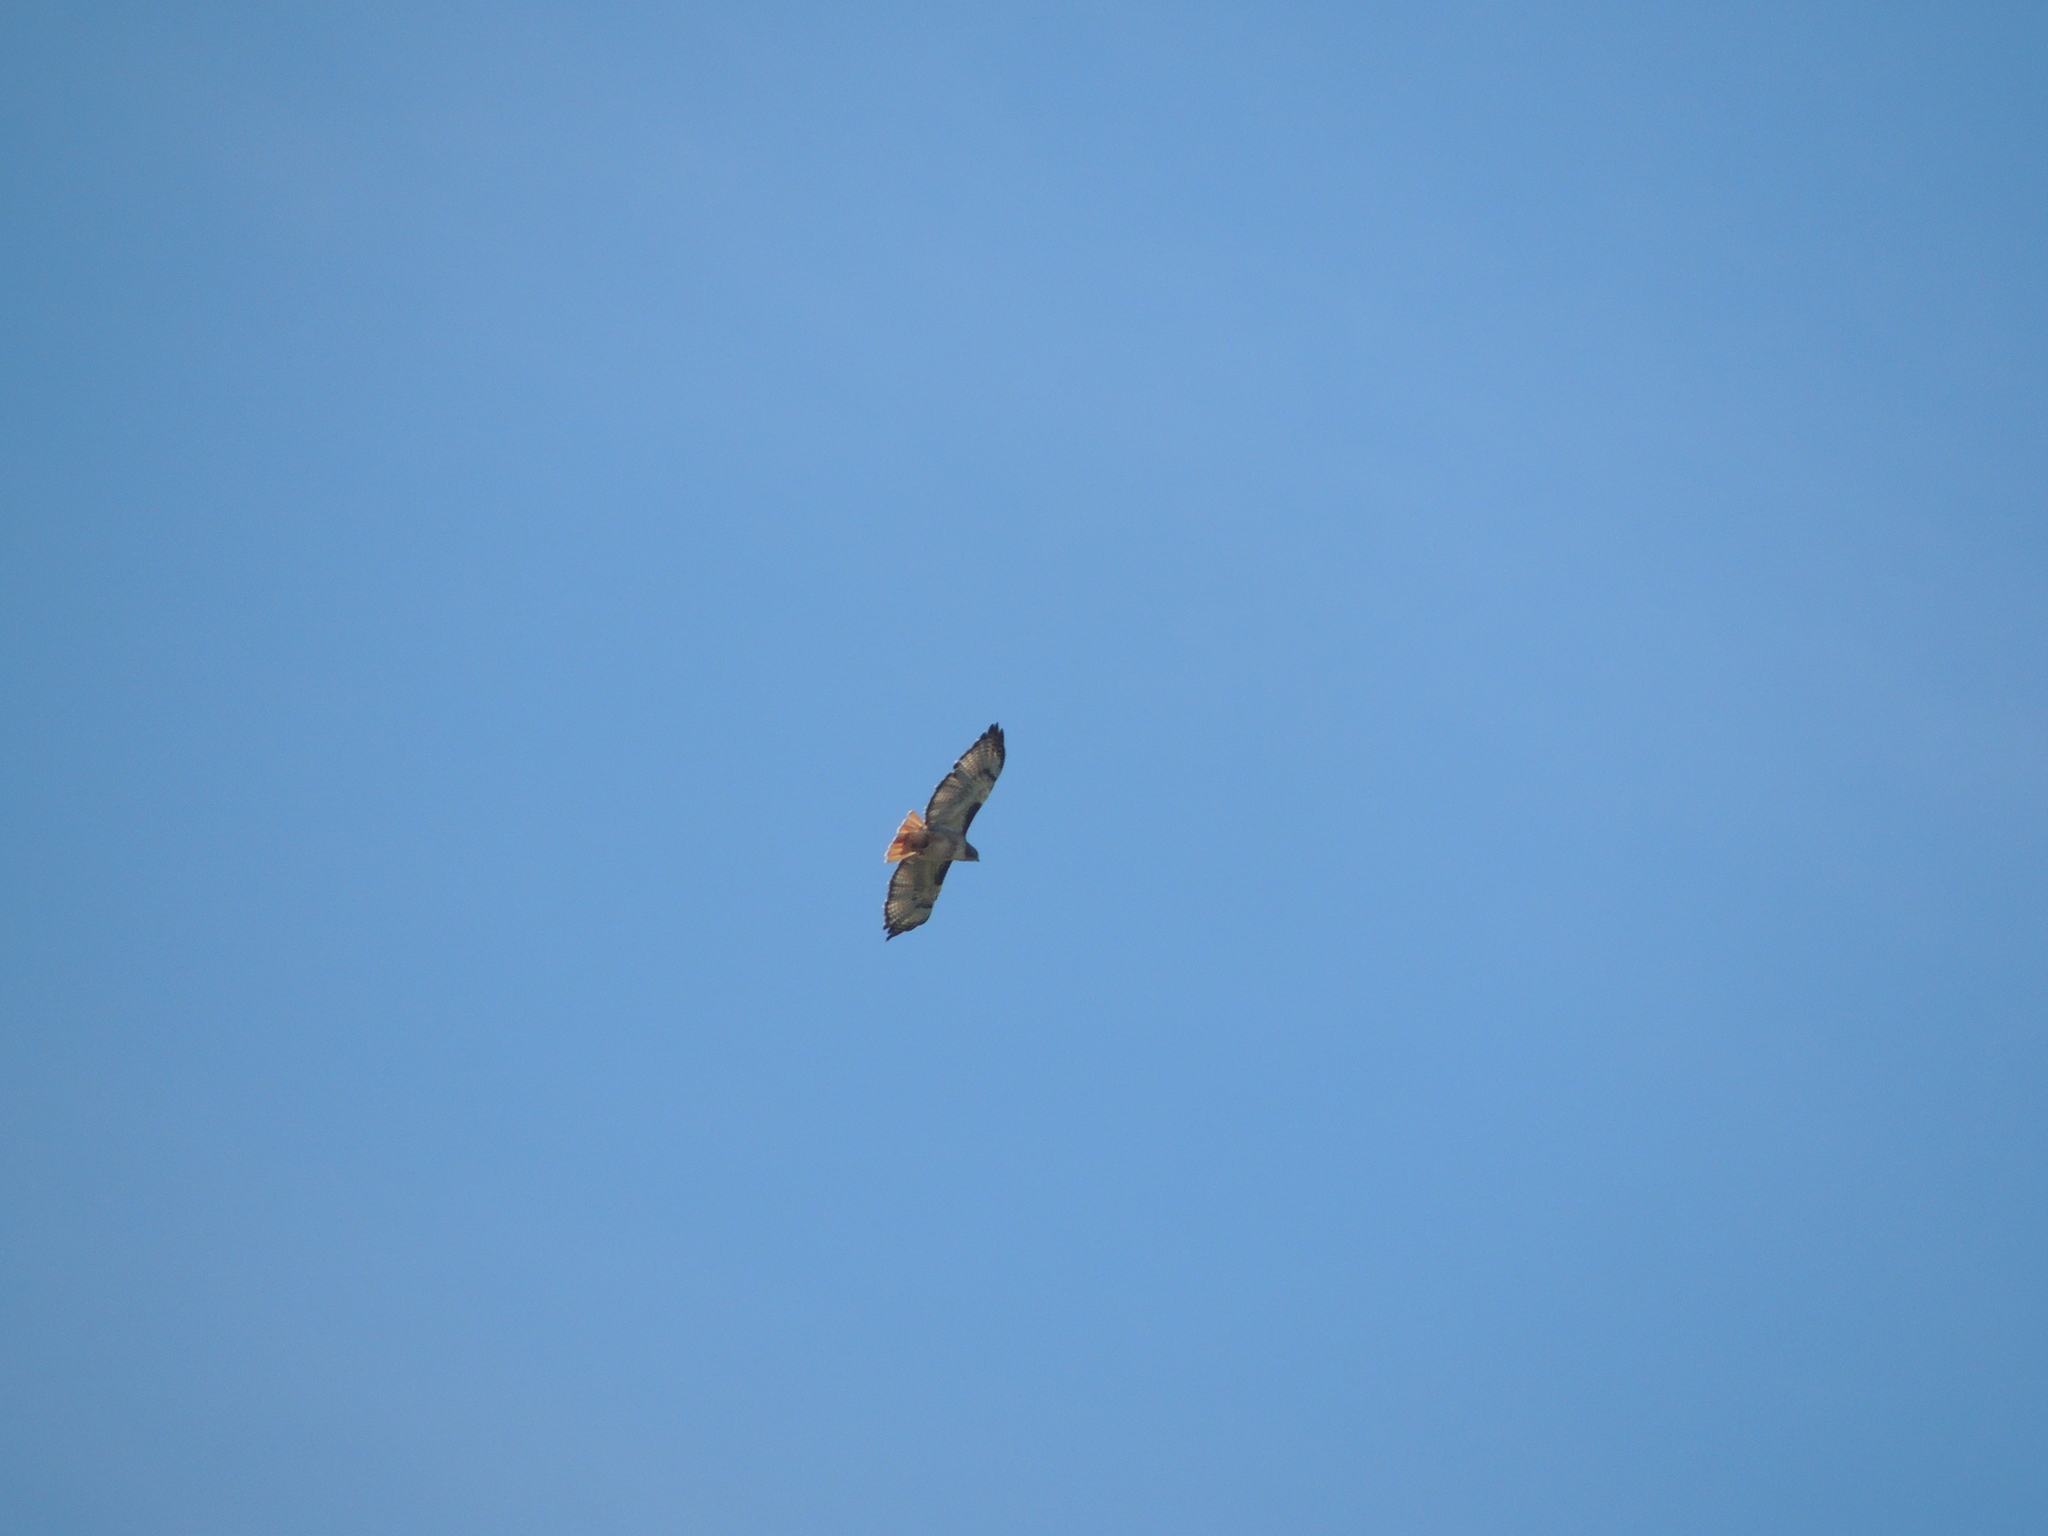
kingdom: Animalia
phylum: Chordata
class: Aves
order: Accipitriformes
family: Accipitridae
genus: Buteo
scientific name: Buteo jamaicensis
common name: Red-tailed hawk
